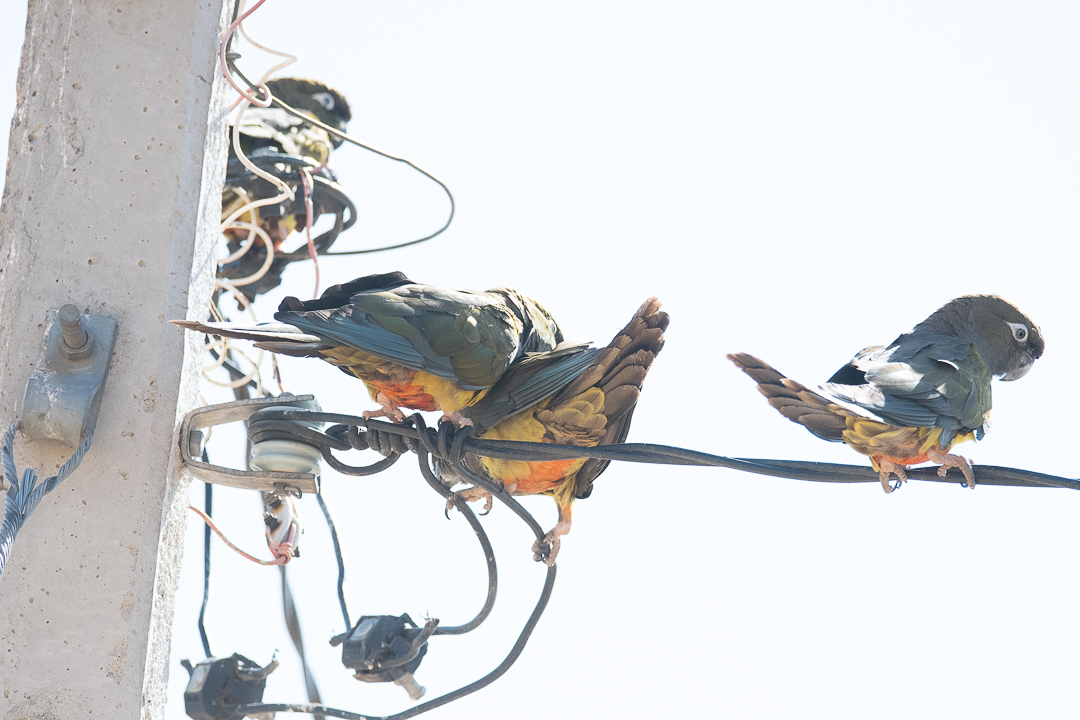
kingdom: Animalia
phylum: Chordata
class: Aves
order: Psittaciformes
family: Psittacidae
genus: Cyanoliseus
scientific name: Cyanoliseus patagonus
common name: Burrowing parrot
